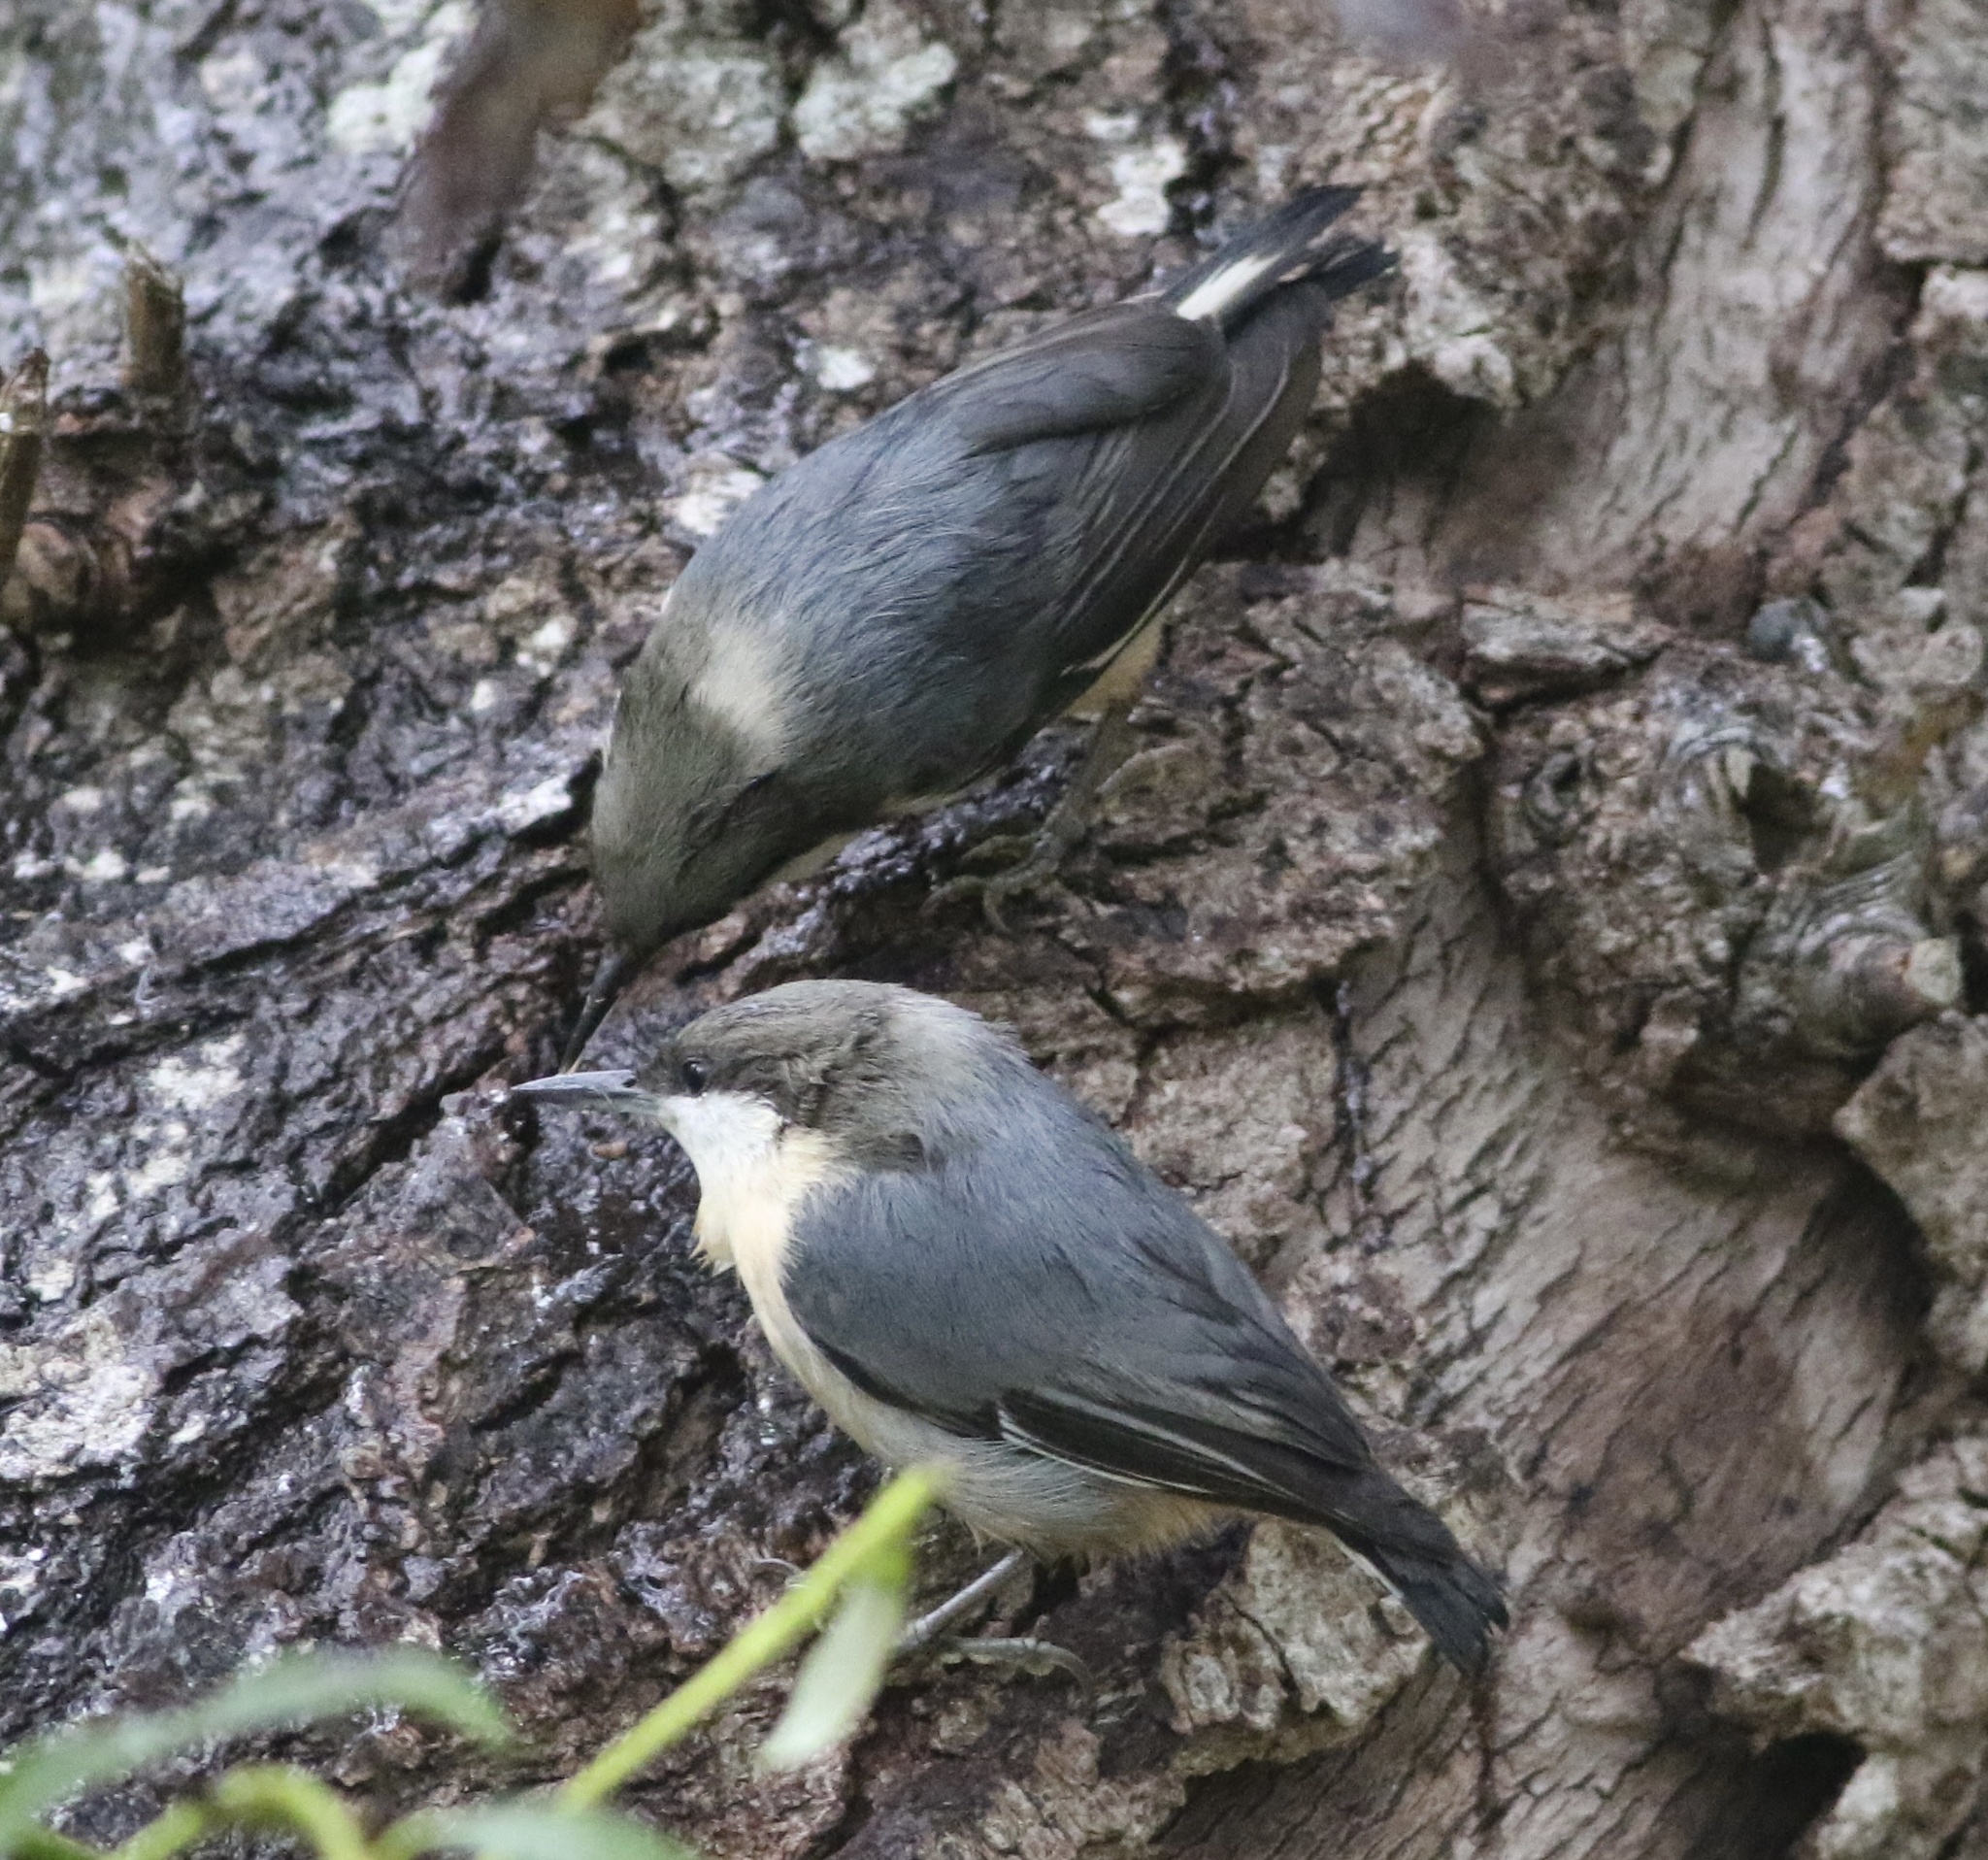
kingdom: Animalia
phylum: Chordata
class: Aves
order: Passeriformes
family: Sittidae
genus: Sitta
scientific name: Sitta pygmaea
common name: Pygmy nuthatch
